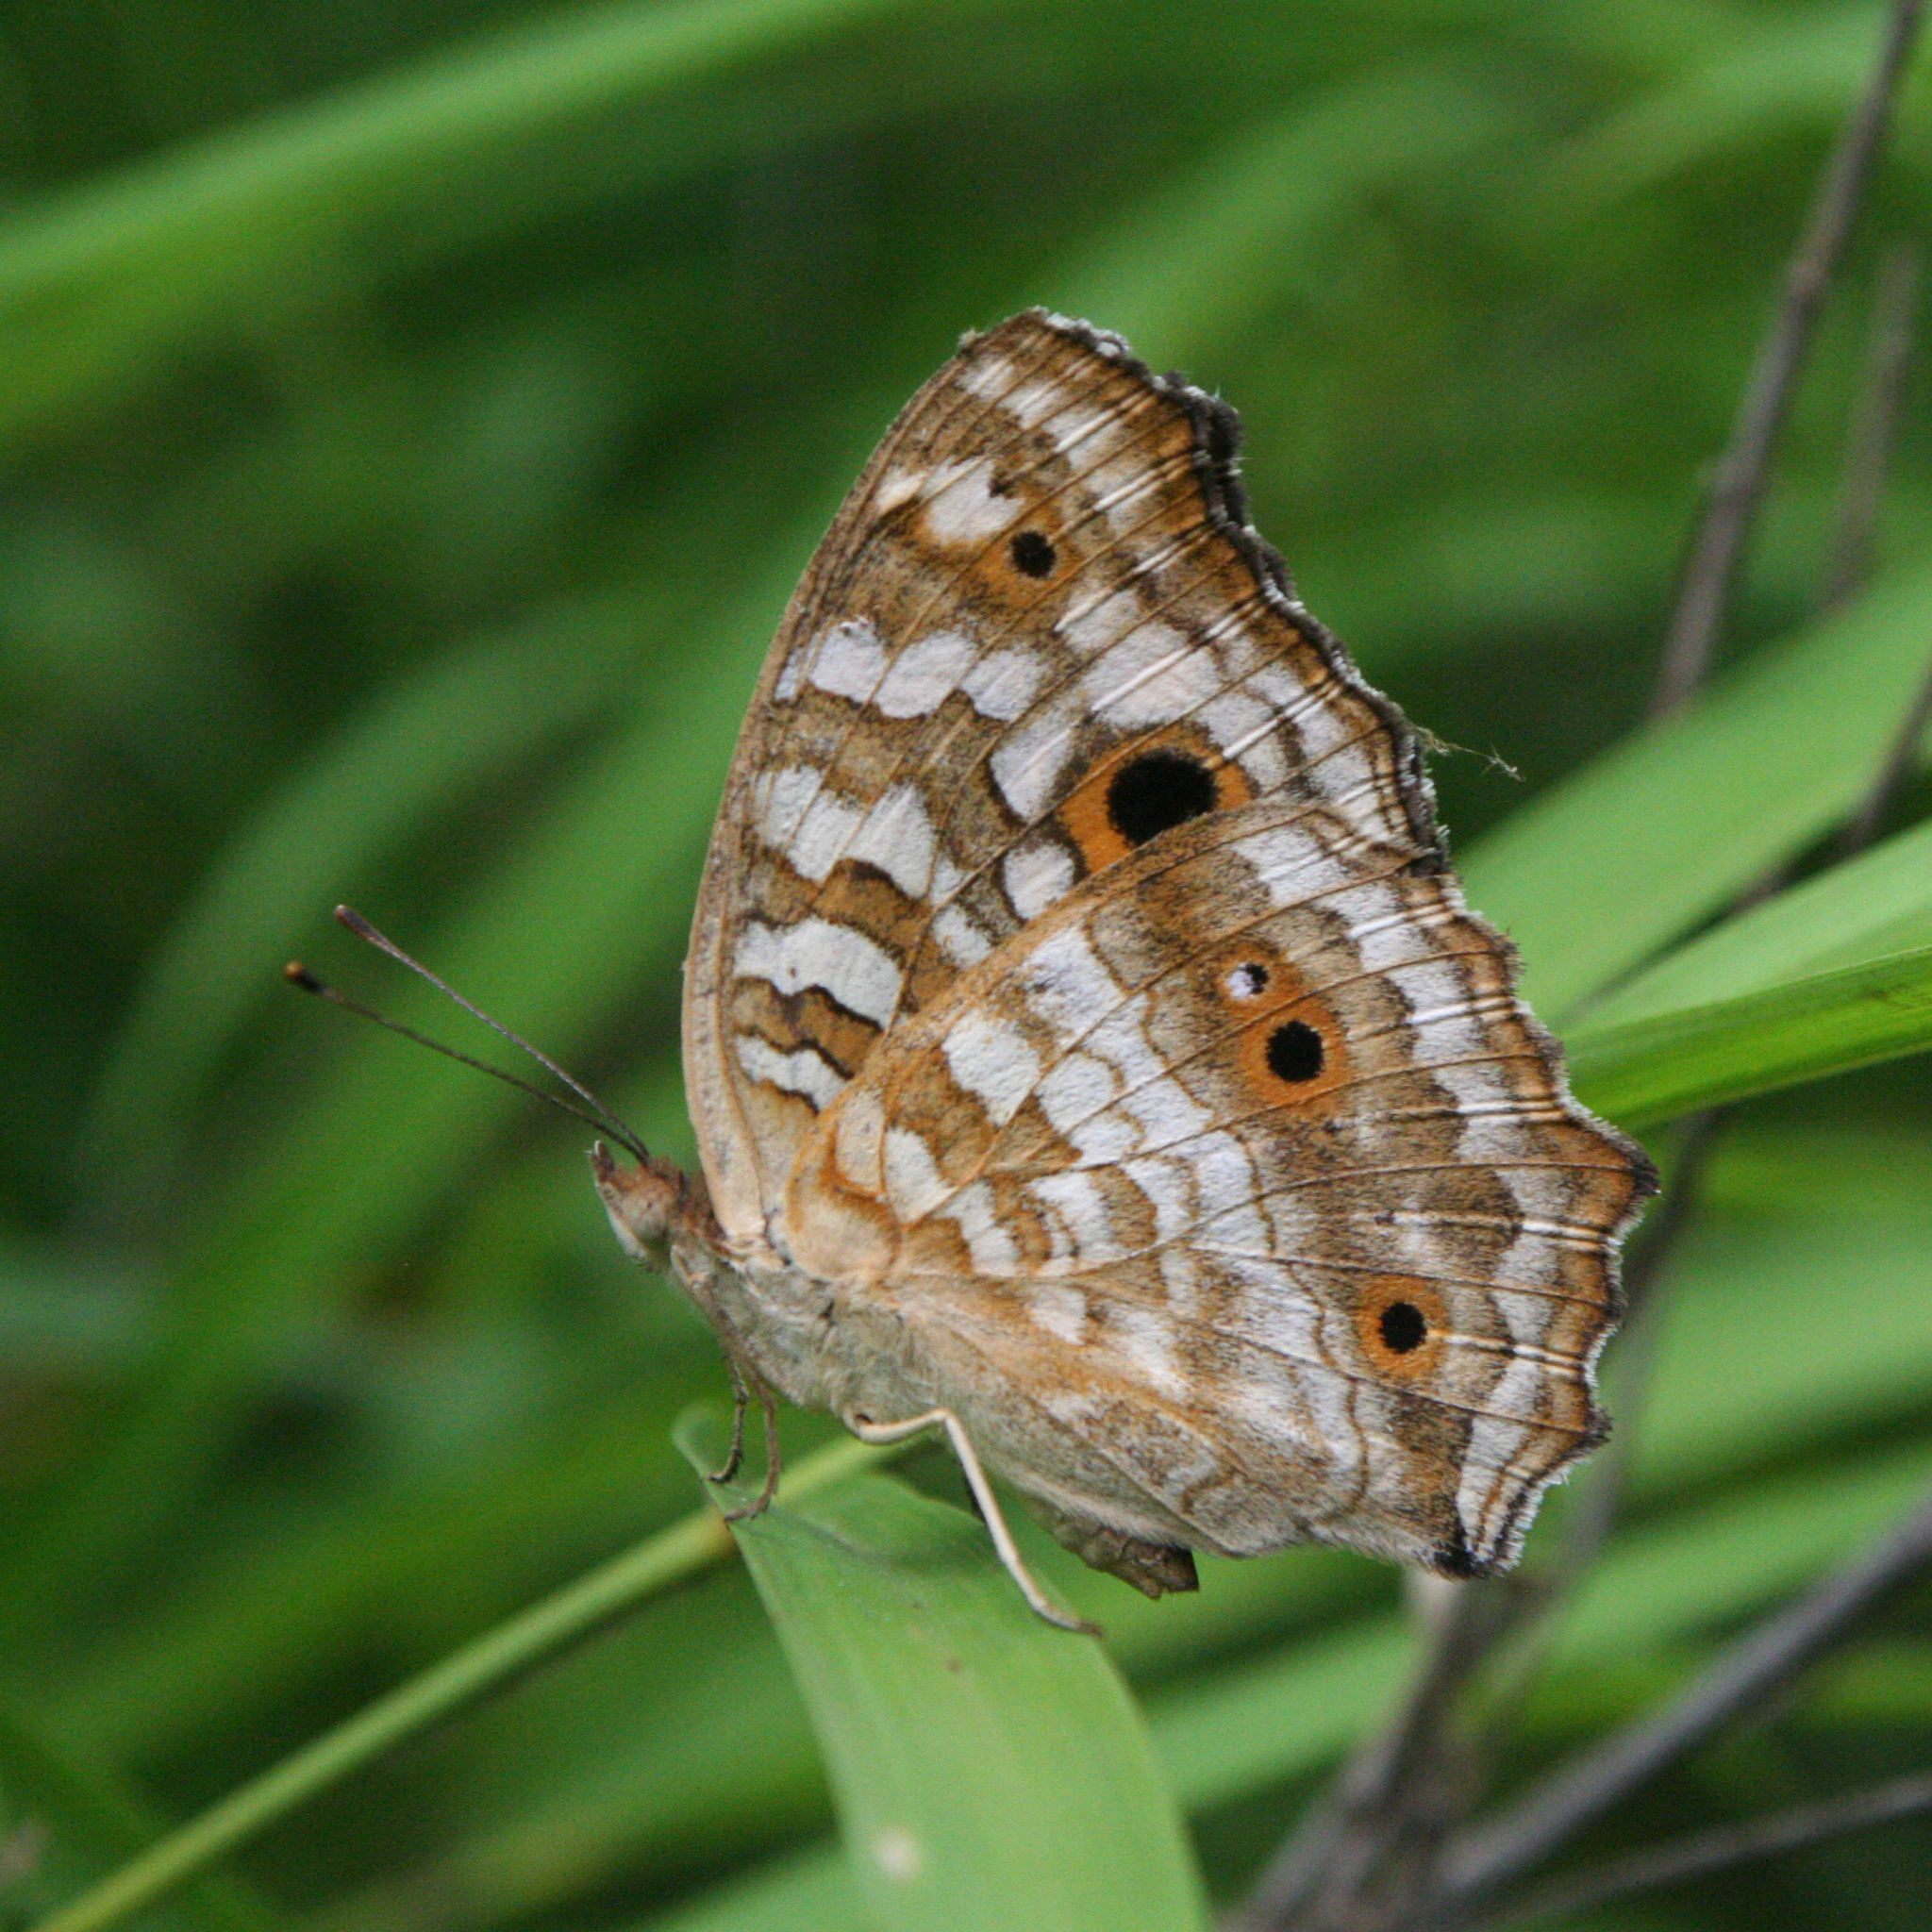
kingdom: Animalia
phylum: Arthropoda
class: Insecta
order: Lepidoptera
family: Nymphalidae
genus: Junonia
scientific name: Junonia lemonias
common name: Lemon pansy
